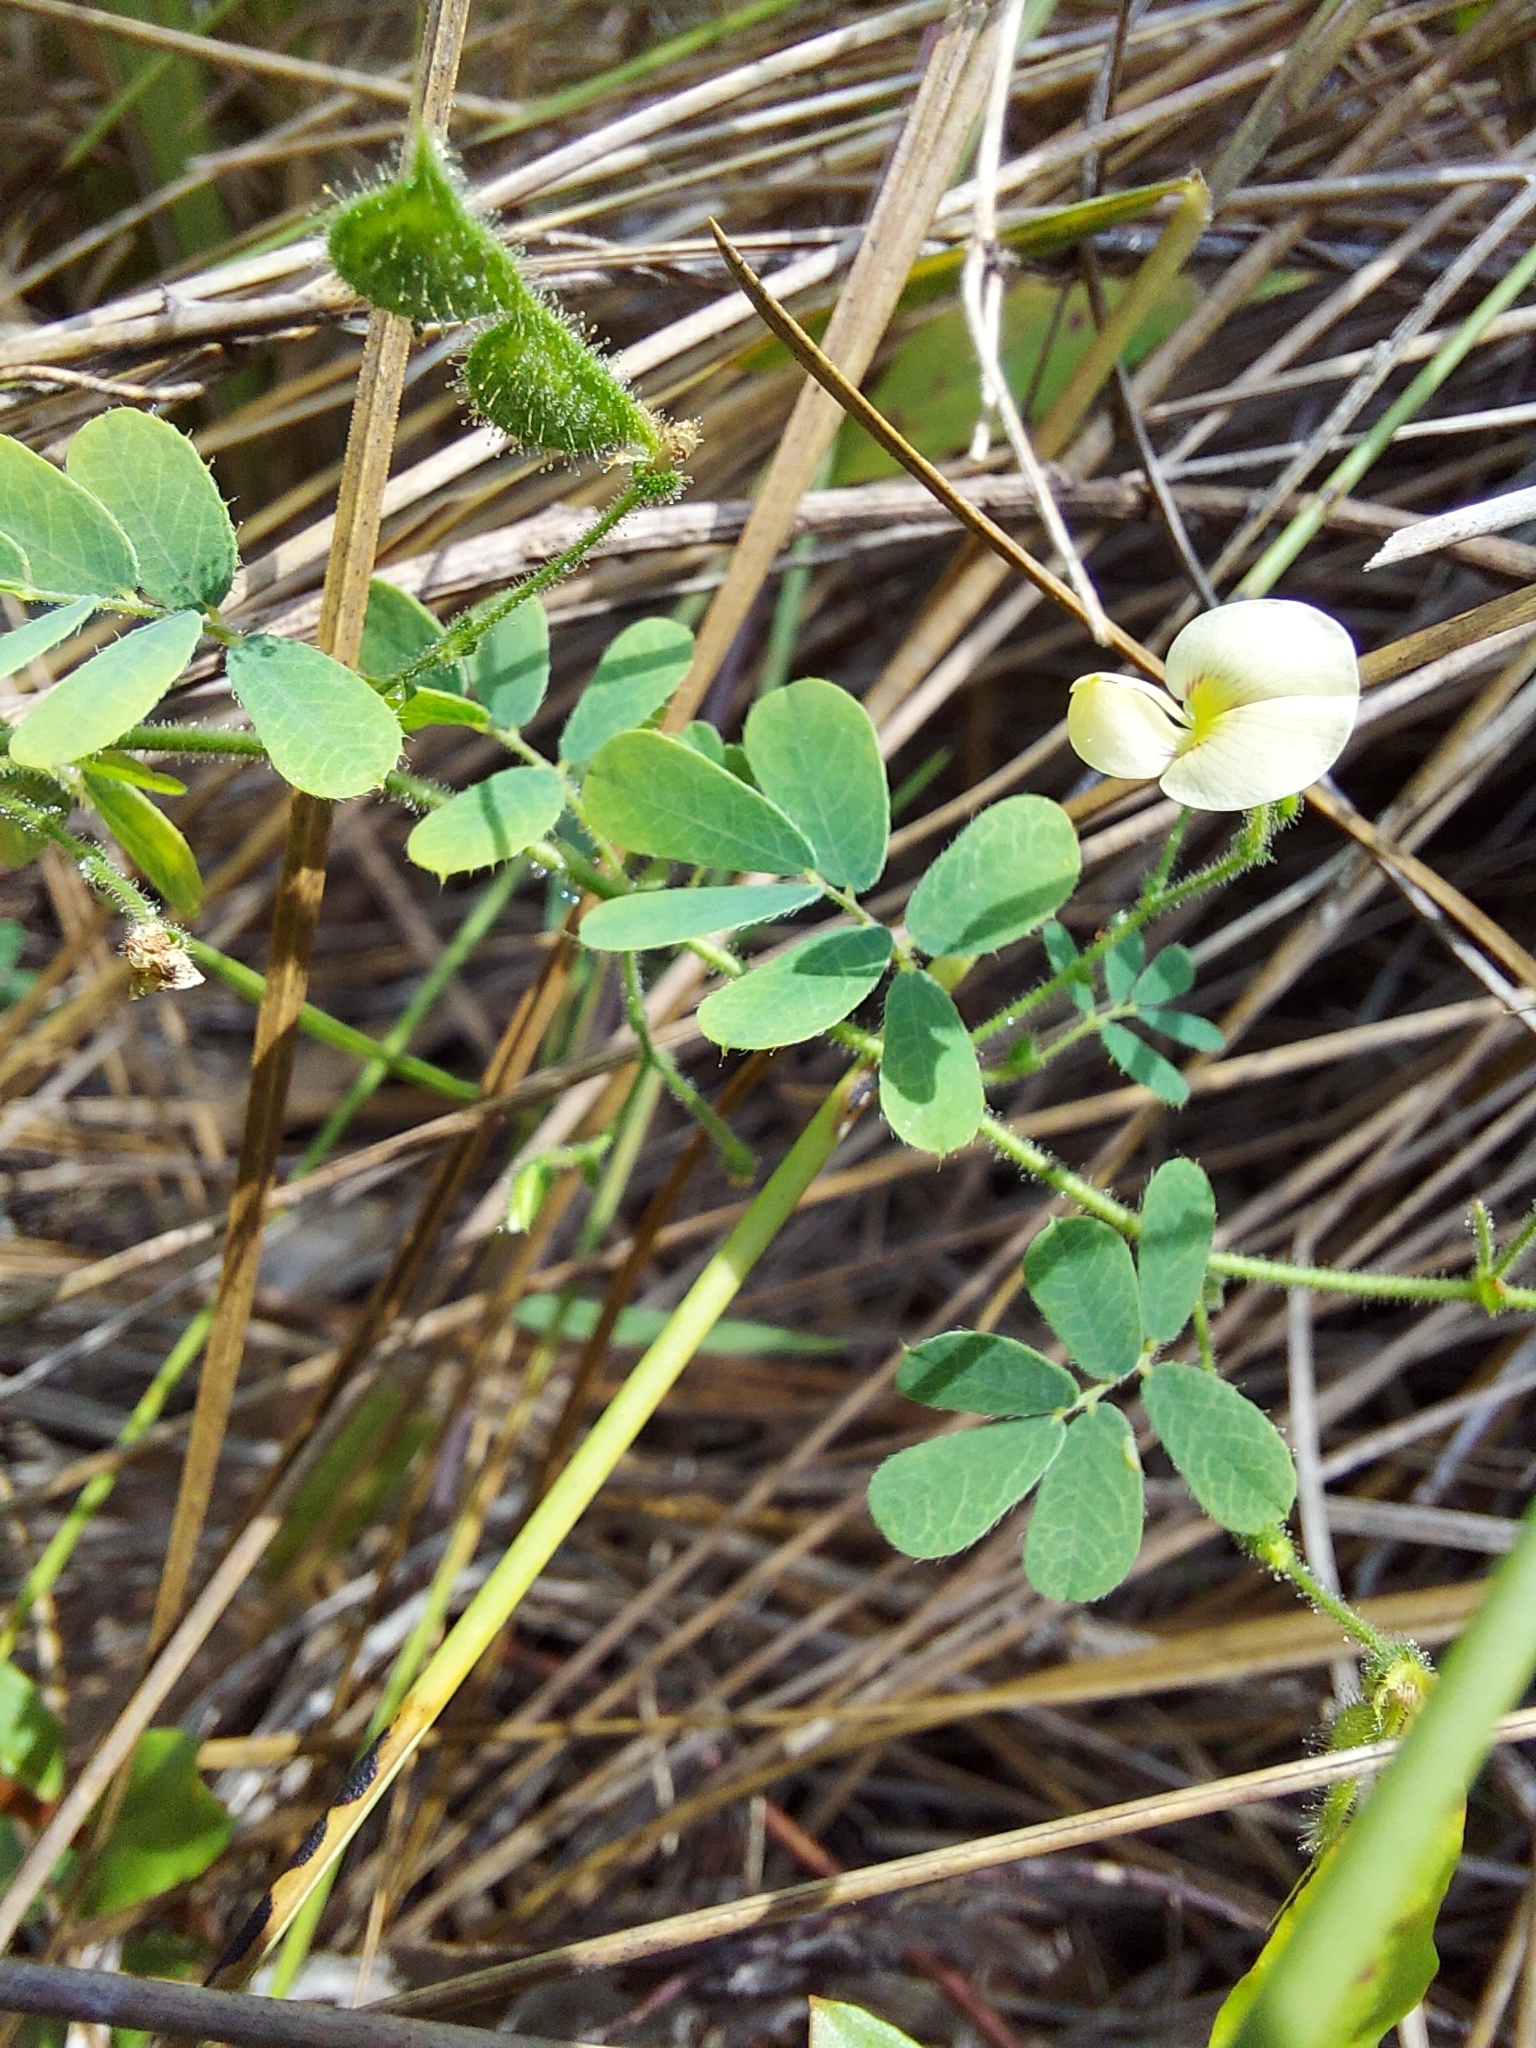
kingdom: Plantae
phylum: Tracheophyta
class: Magnoliopsida
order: Fabales
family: Fabaceae
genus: Ctenodon
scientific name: Ctenodon viscidulus
